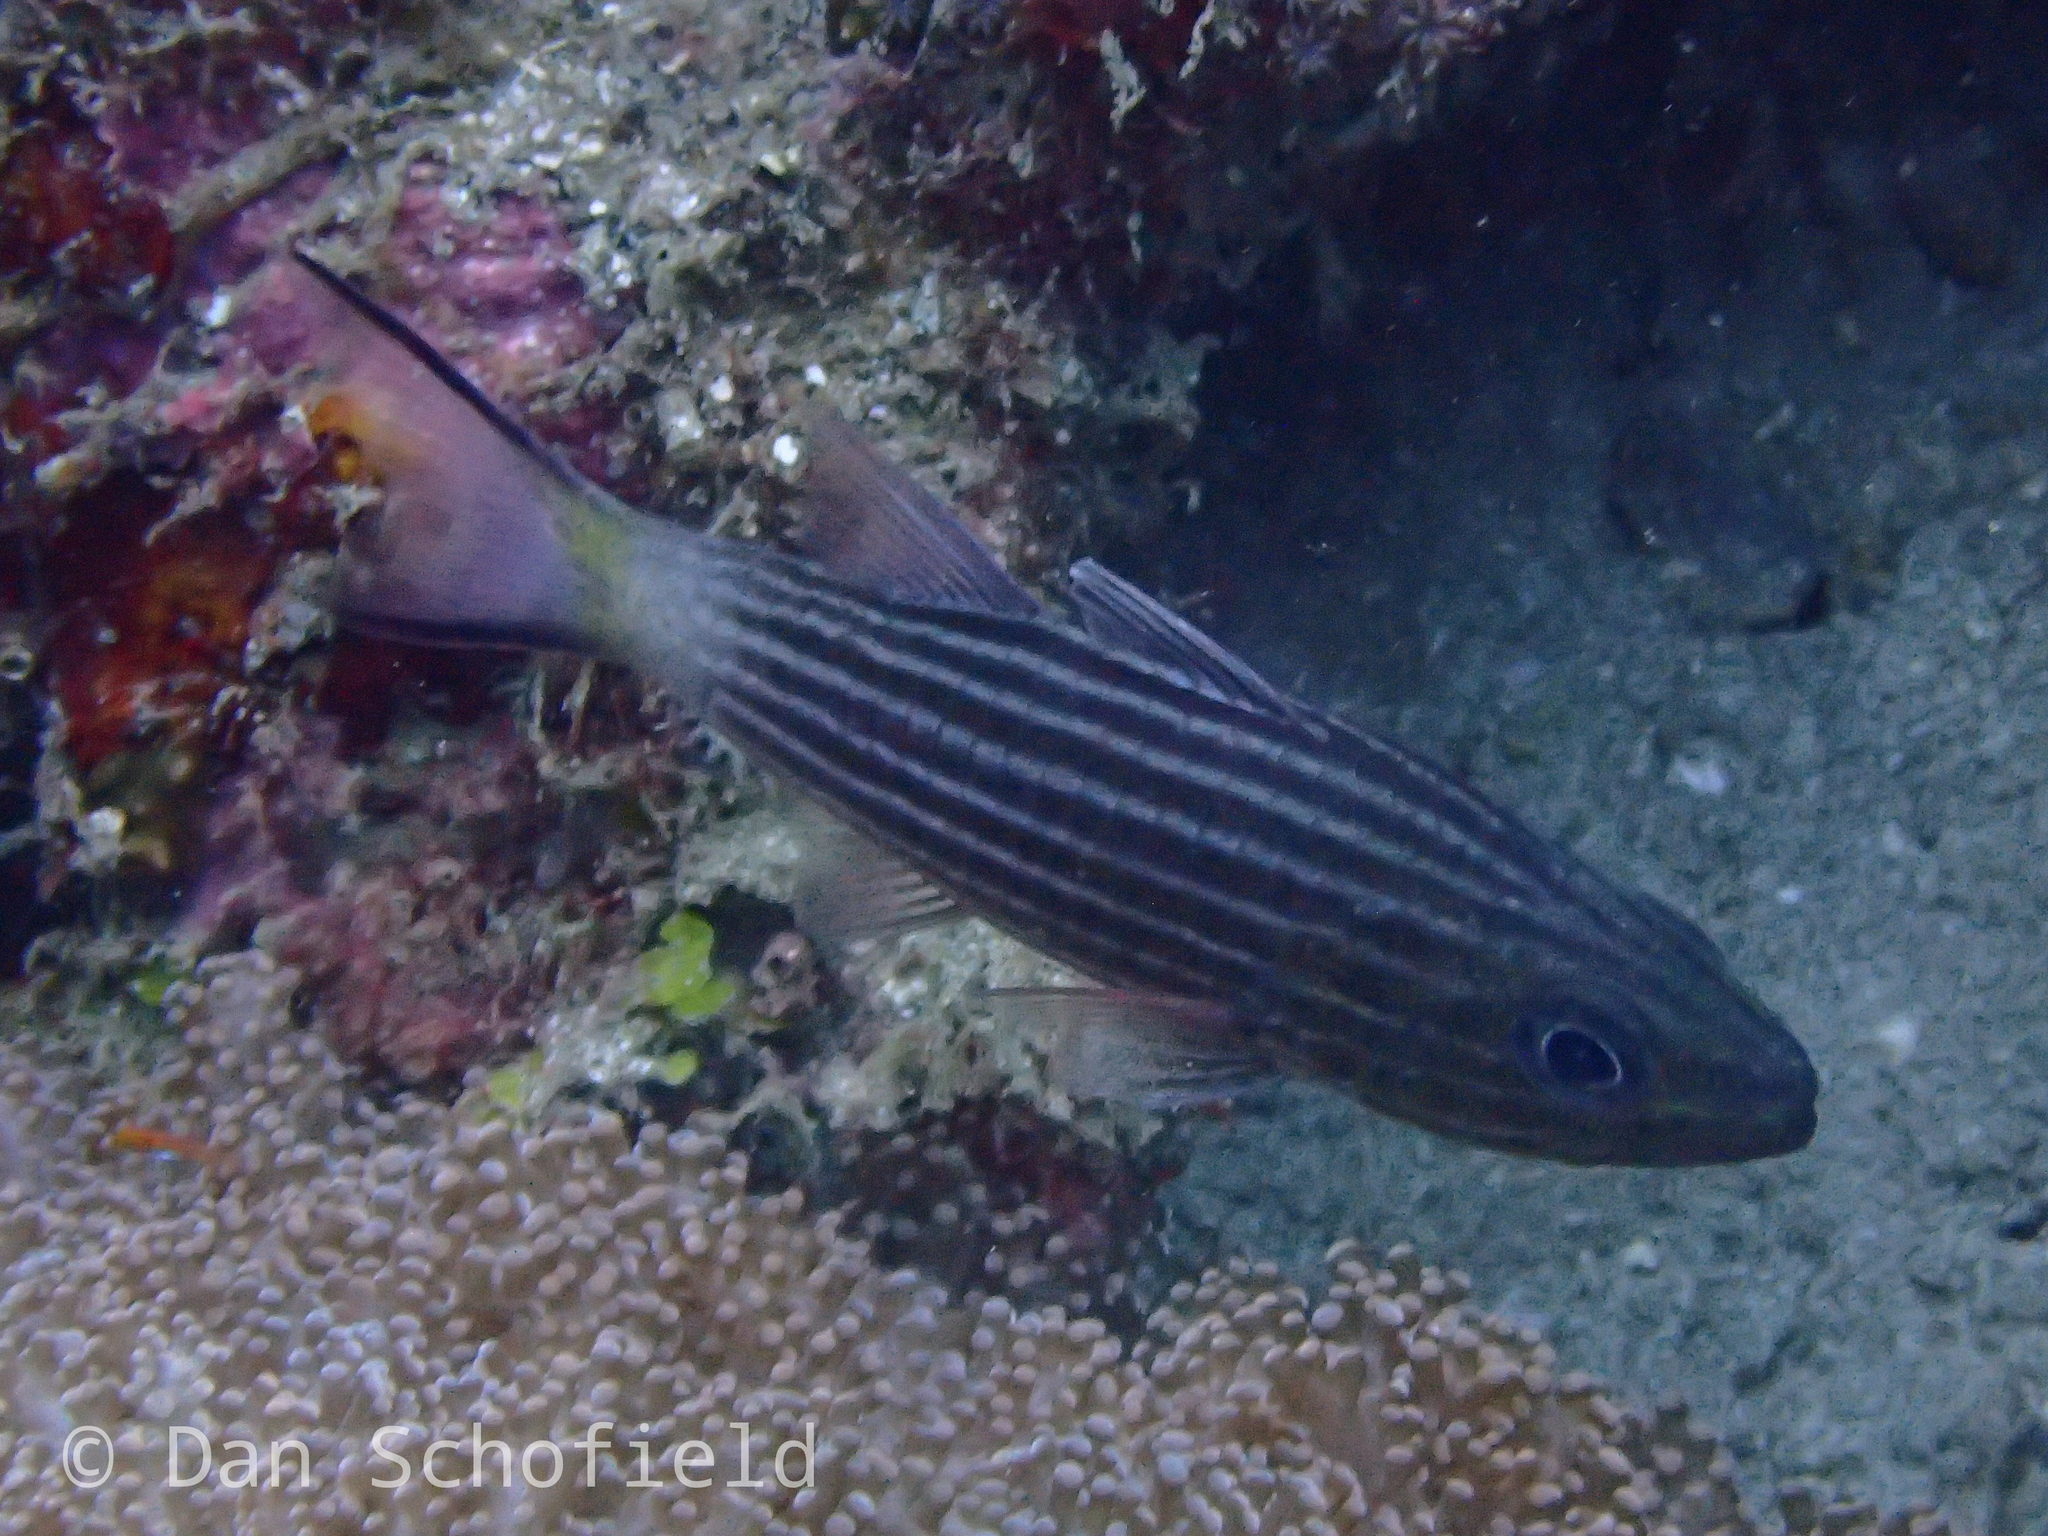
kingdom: Animalia
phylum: Chordata
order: Perciformes
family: Apogonidae
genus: Cheilodipterus
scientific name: Cheilodipterus macrodon
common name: Eight-lined cardinalfish
